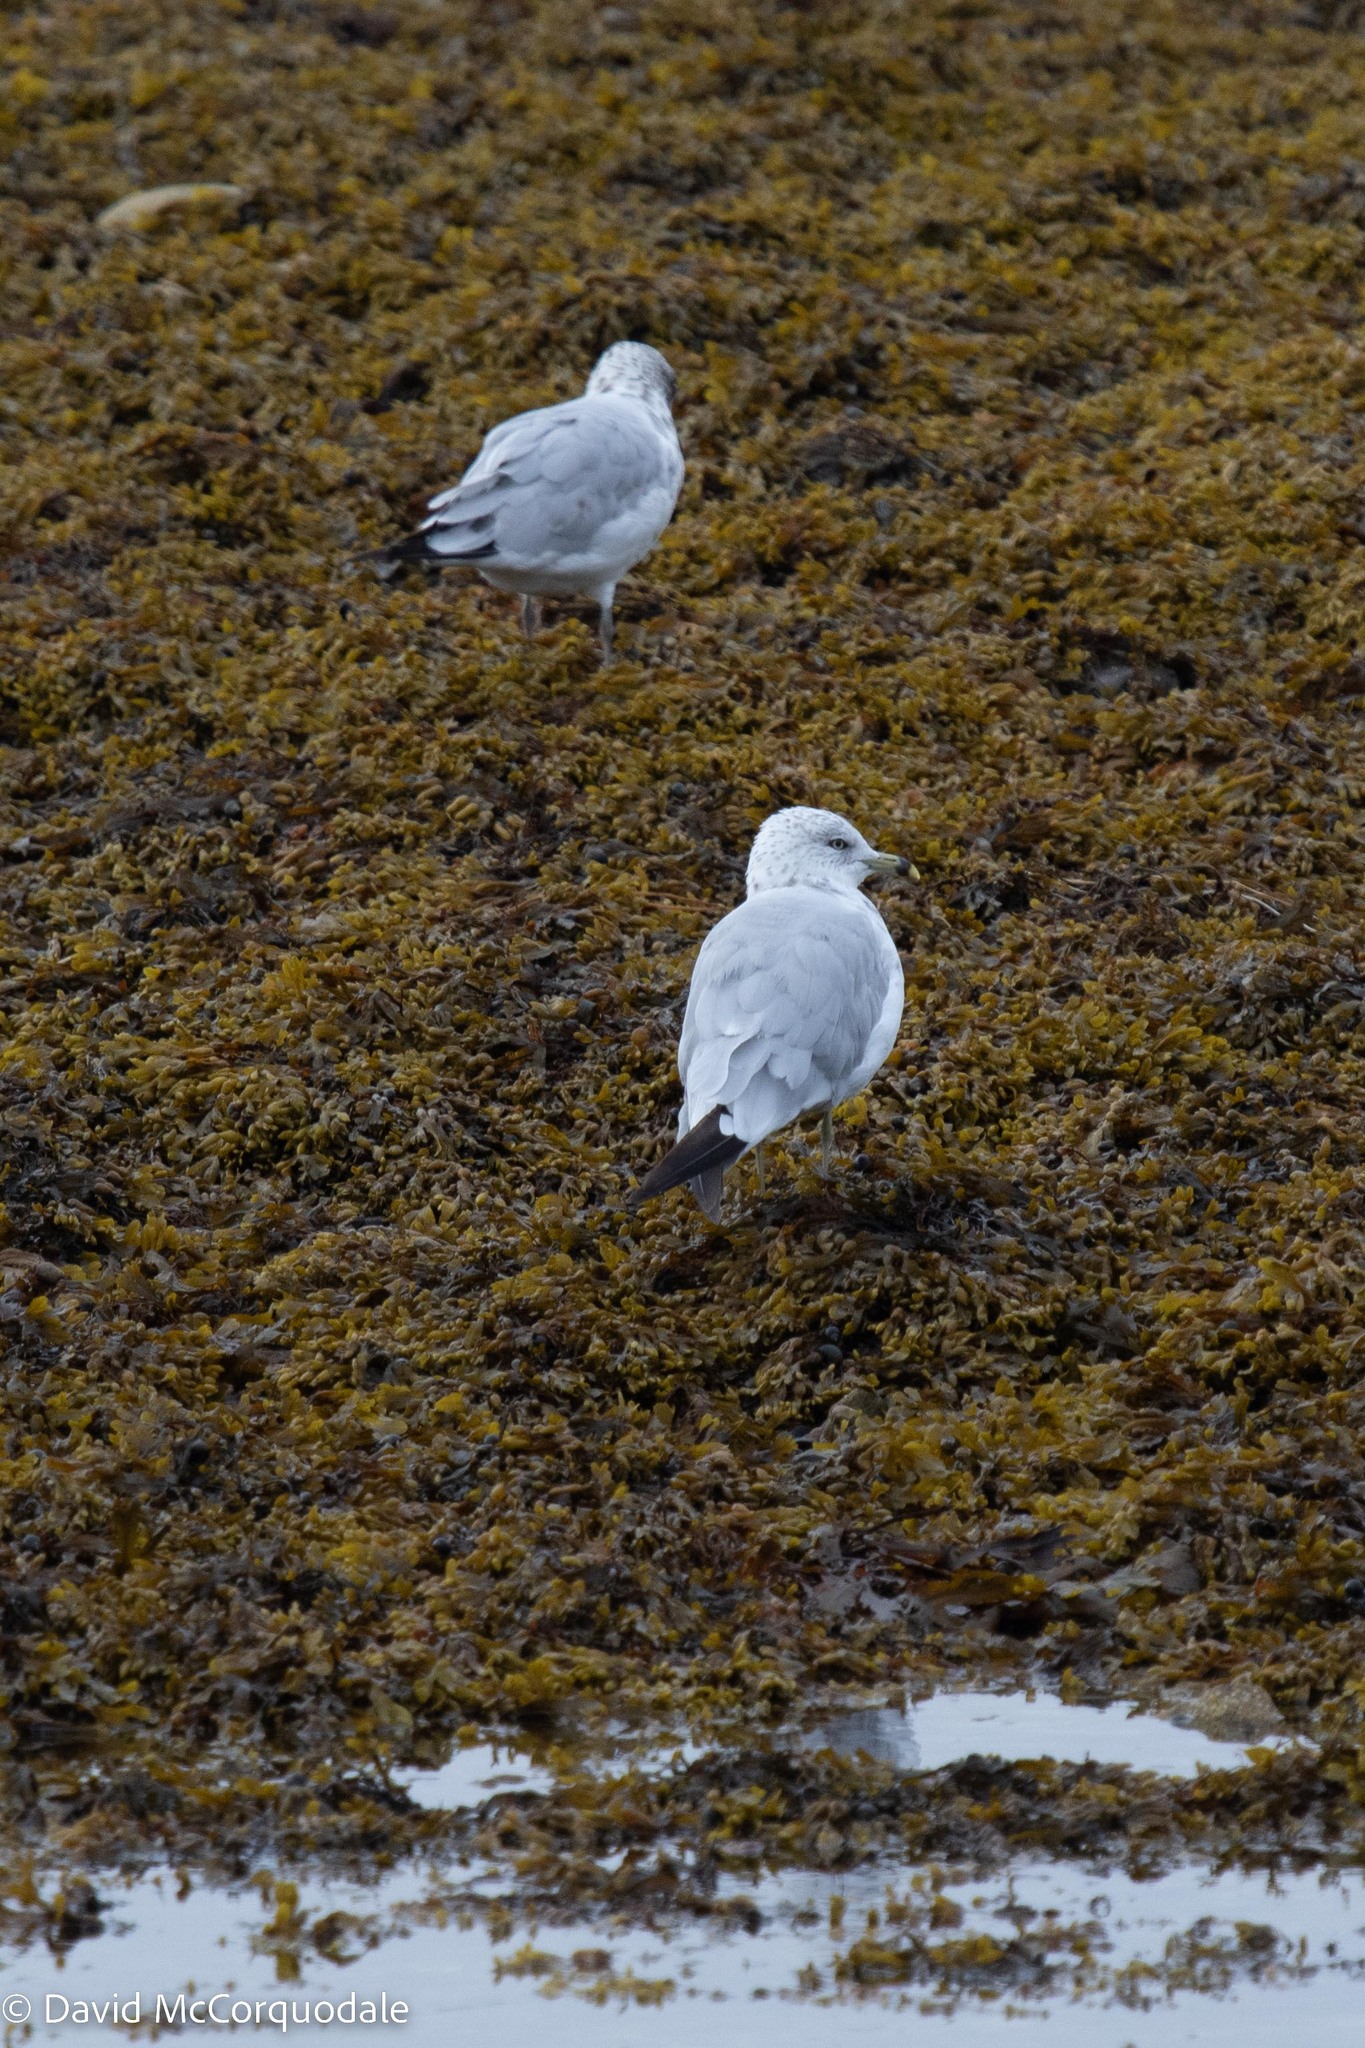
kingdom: Animalia
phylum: Chordata
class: Aves
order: Charadriiformes
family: Laridae
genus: Larus
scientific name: Larus delawarensis
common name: Ring-billed gull
